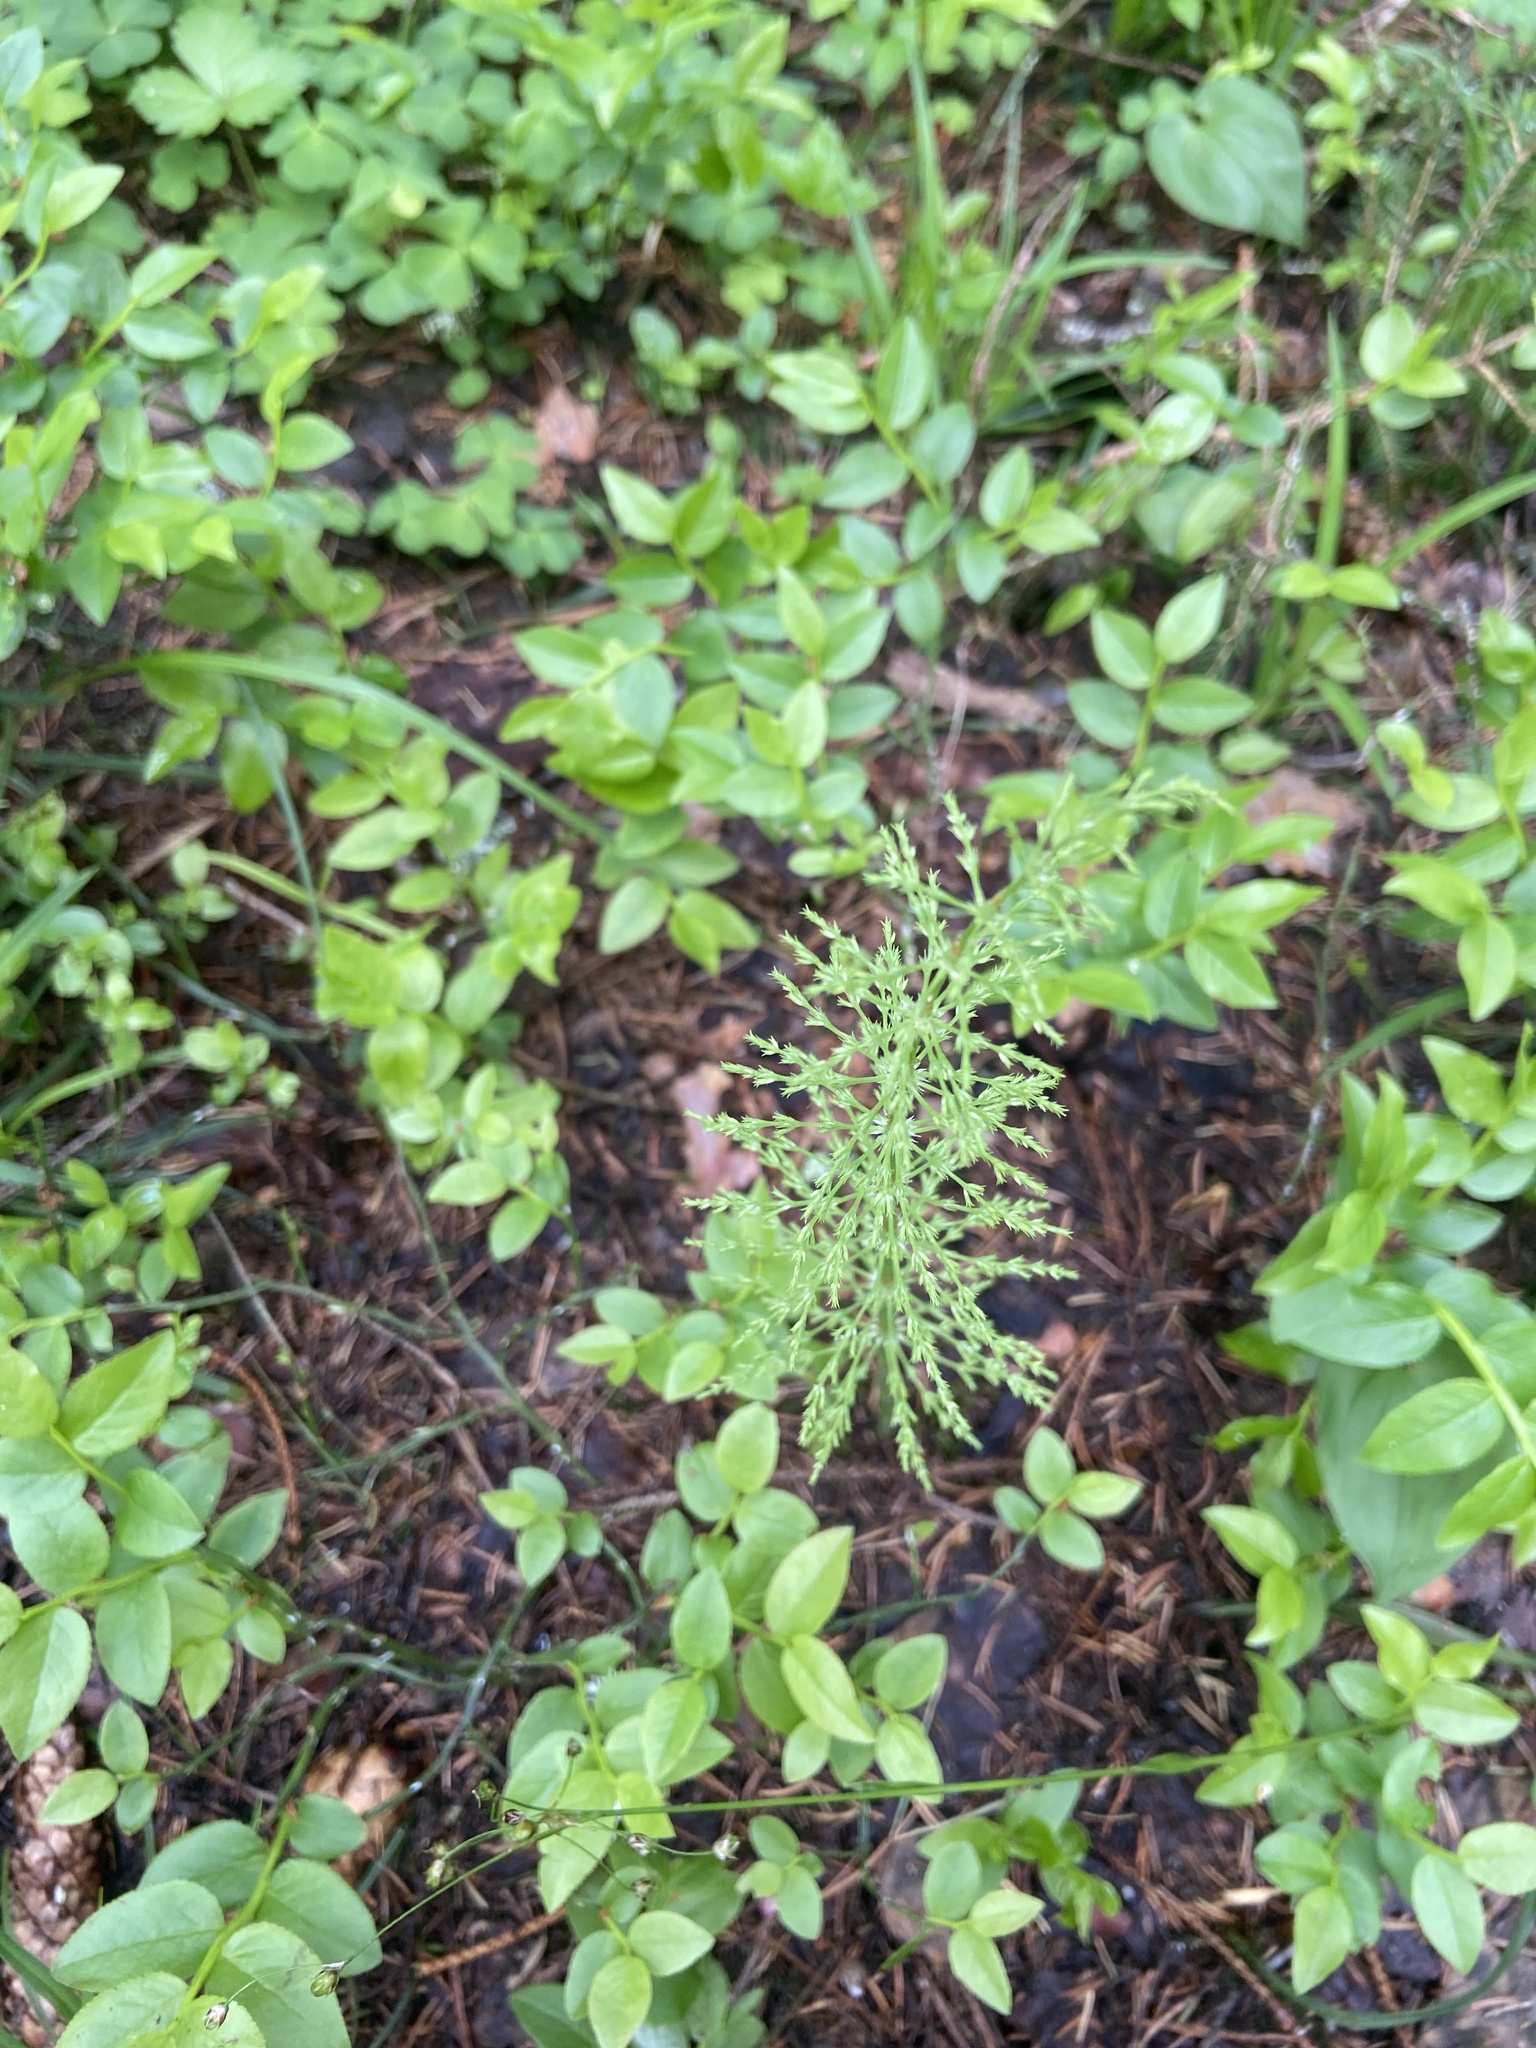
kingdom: Plantae
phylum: Tracheophyta
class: Polypodiopsida
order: Equisetales
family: Equisetaceae
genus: Equisetum
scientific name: Equisetum sylvaticum
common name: Wood horsetail
